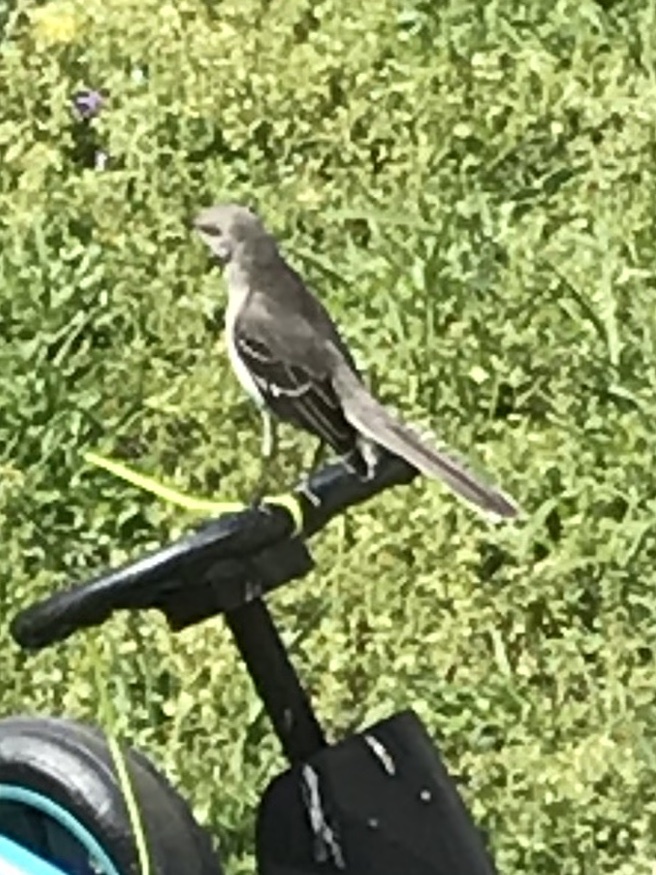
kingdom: Animalia
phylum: Chordata
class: Aves
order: Passeriformes
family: Mimidae
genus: Mimus
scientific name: Mimus polyglottos
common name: Northern mockingbird
